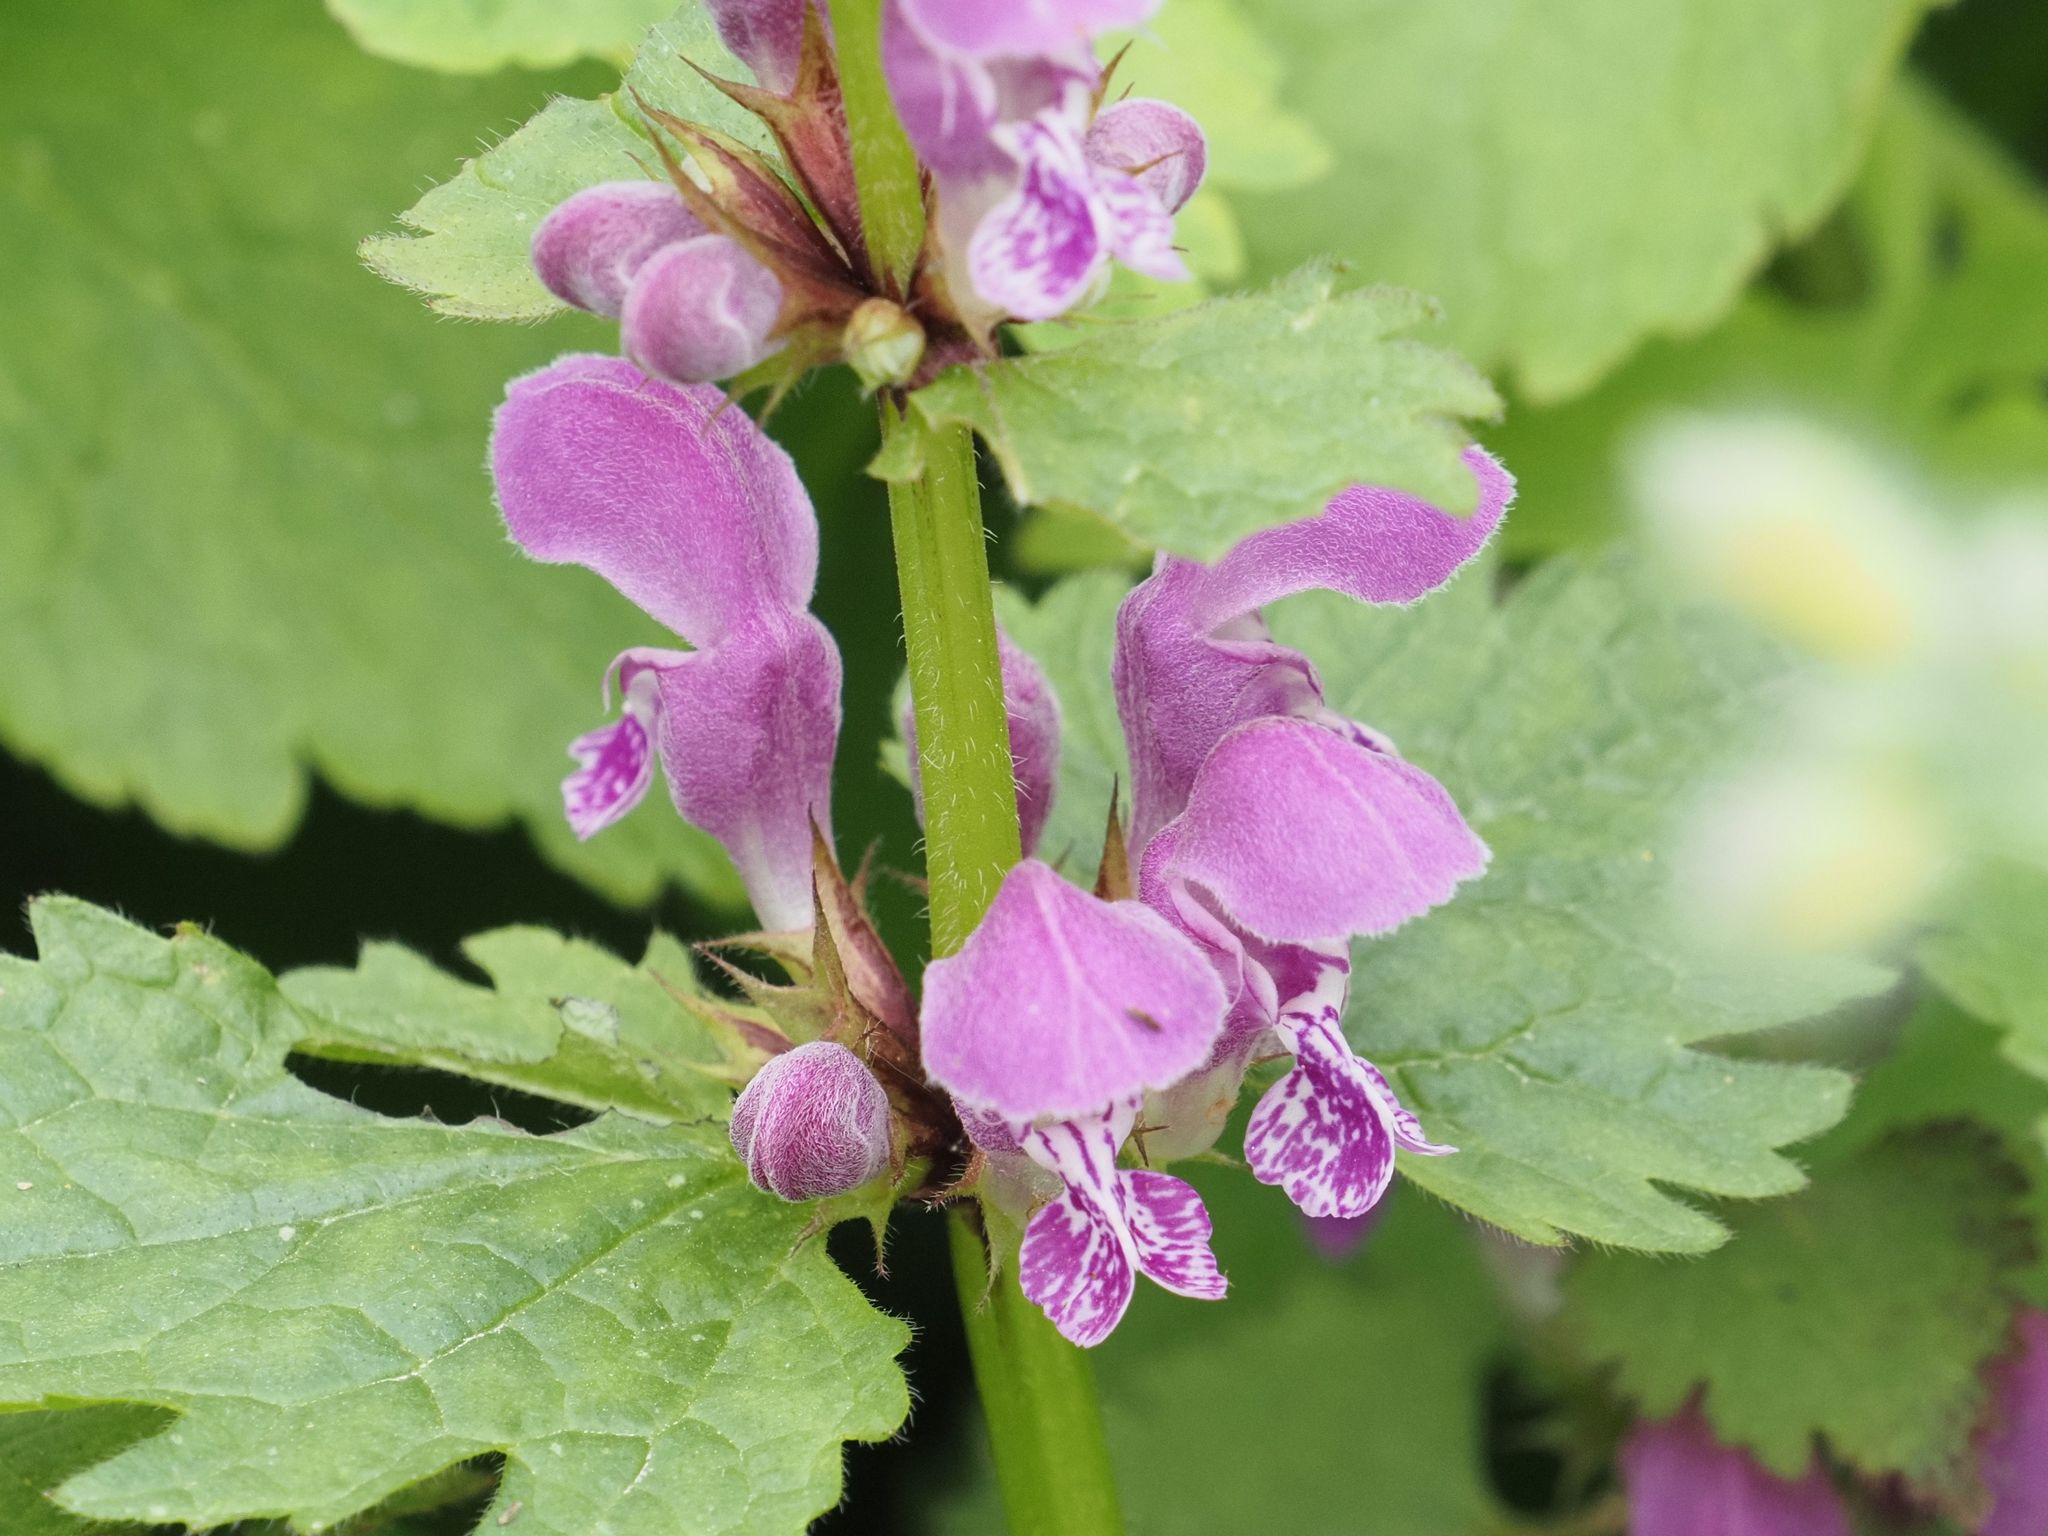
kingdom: Plantae
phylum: Tracheophyta
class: Magnoliopsida
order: Lamiales
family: Lamiaceae
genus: Lamium
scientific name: Lamium maculatum
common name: Spotted dead-nettle
